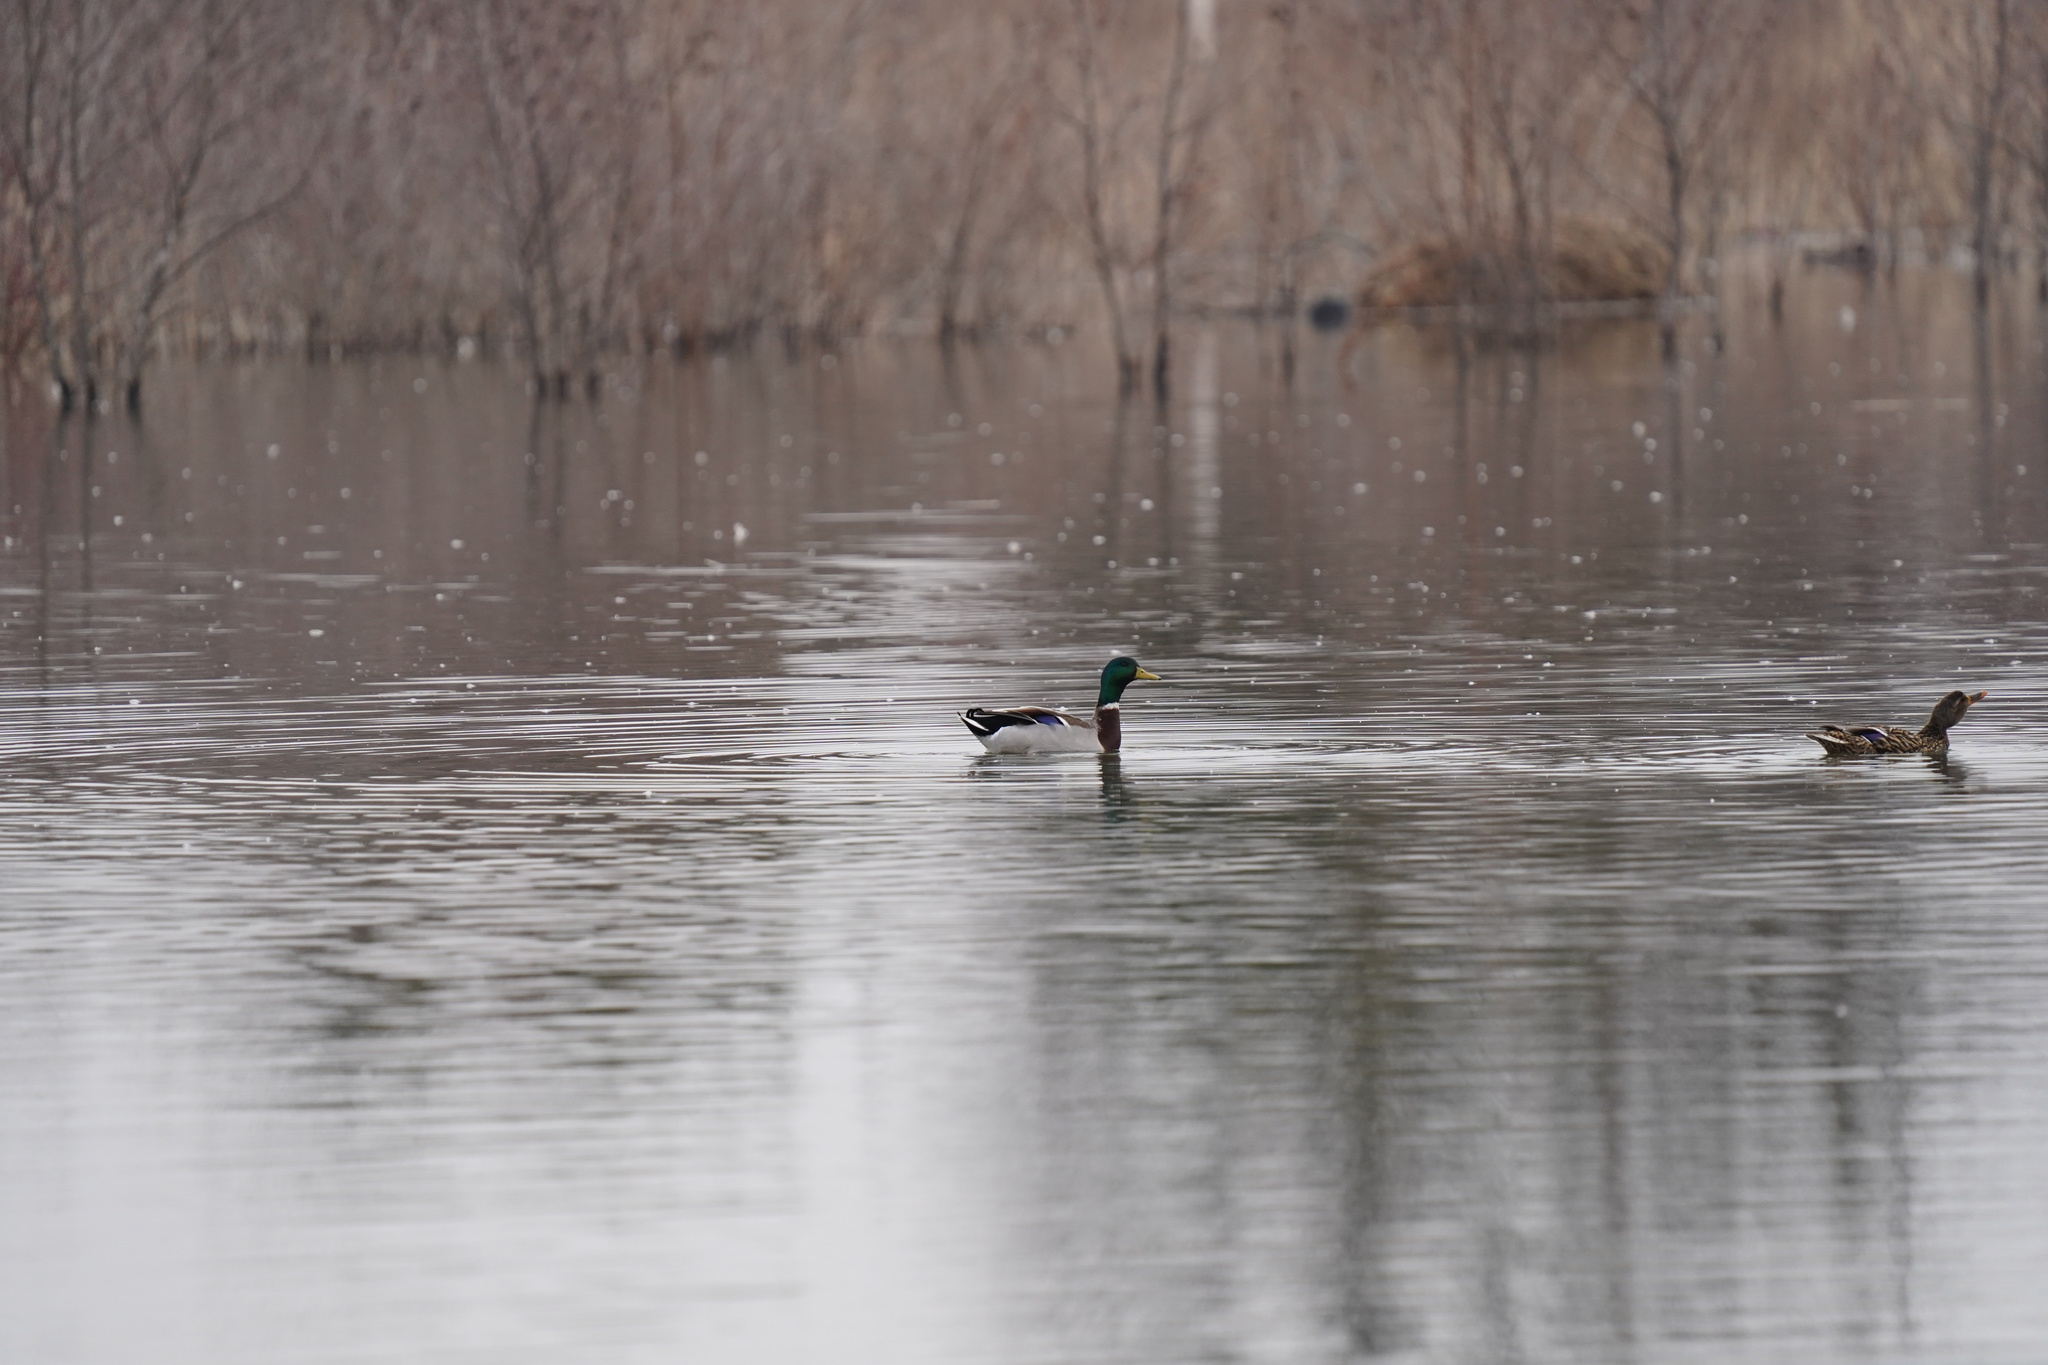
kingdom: Animalia
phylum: Chordata
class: Aves
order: Anseriformes
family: Anatidae
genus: Anas
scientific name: Anas platyrhynchos
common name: Mallard
